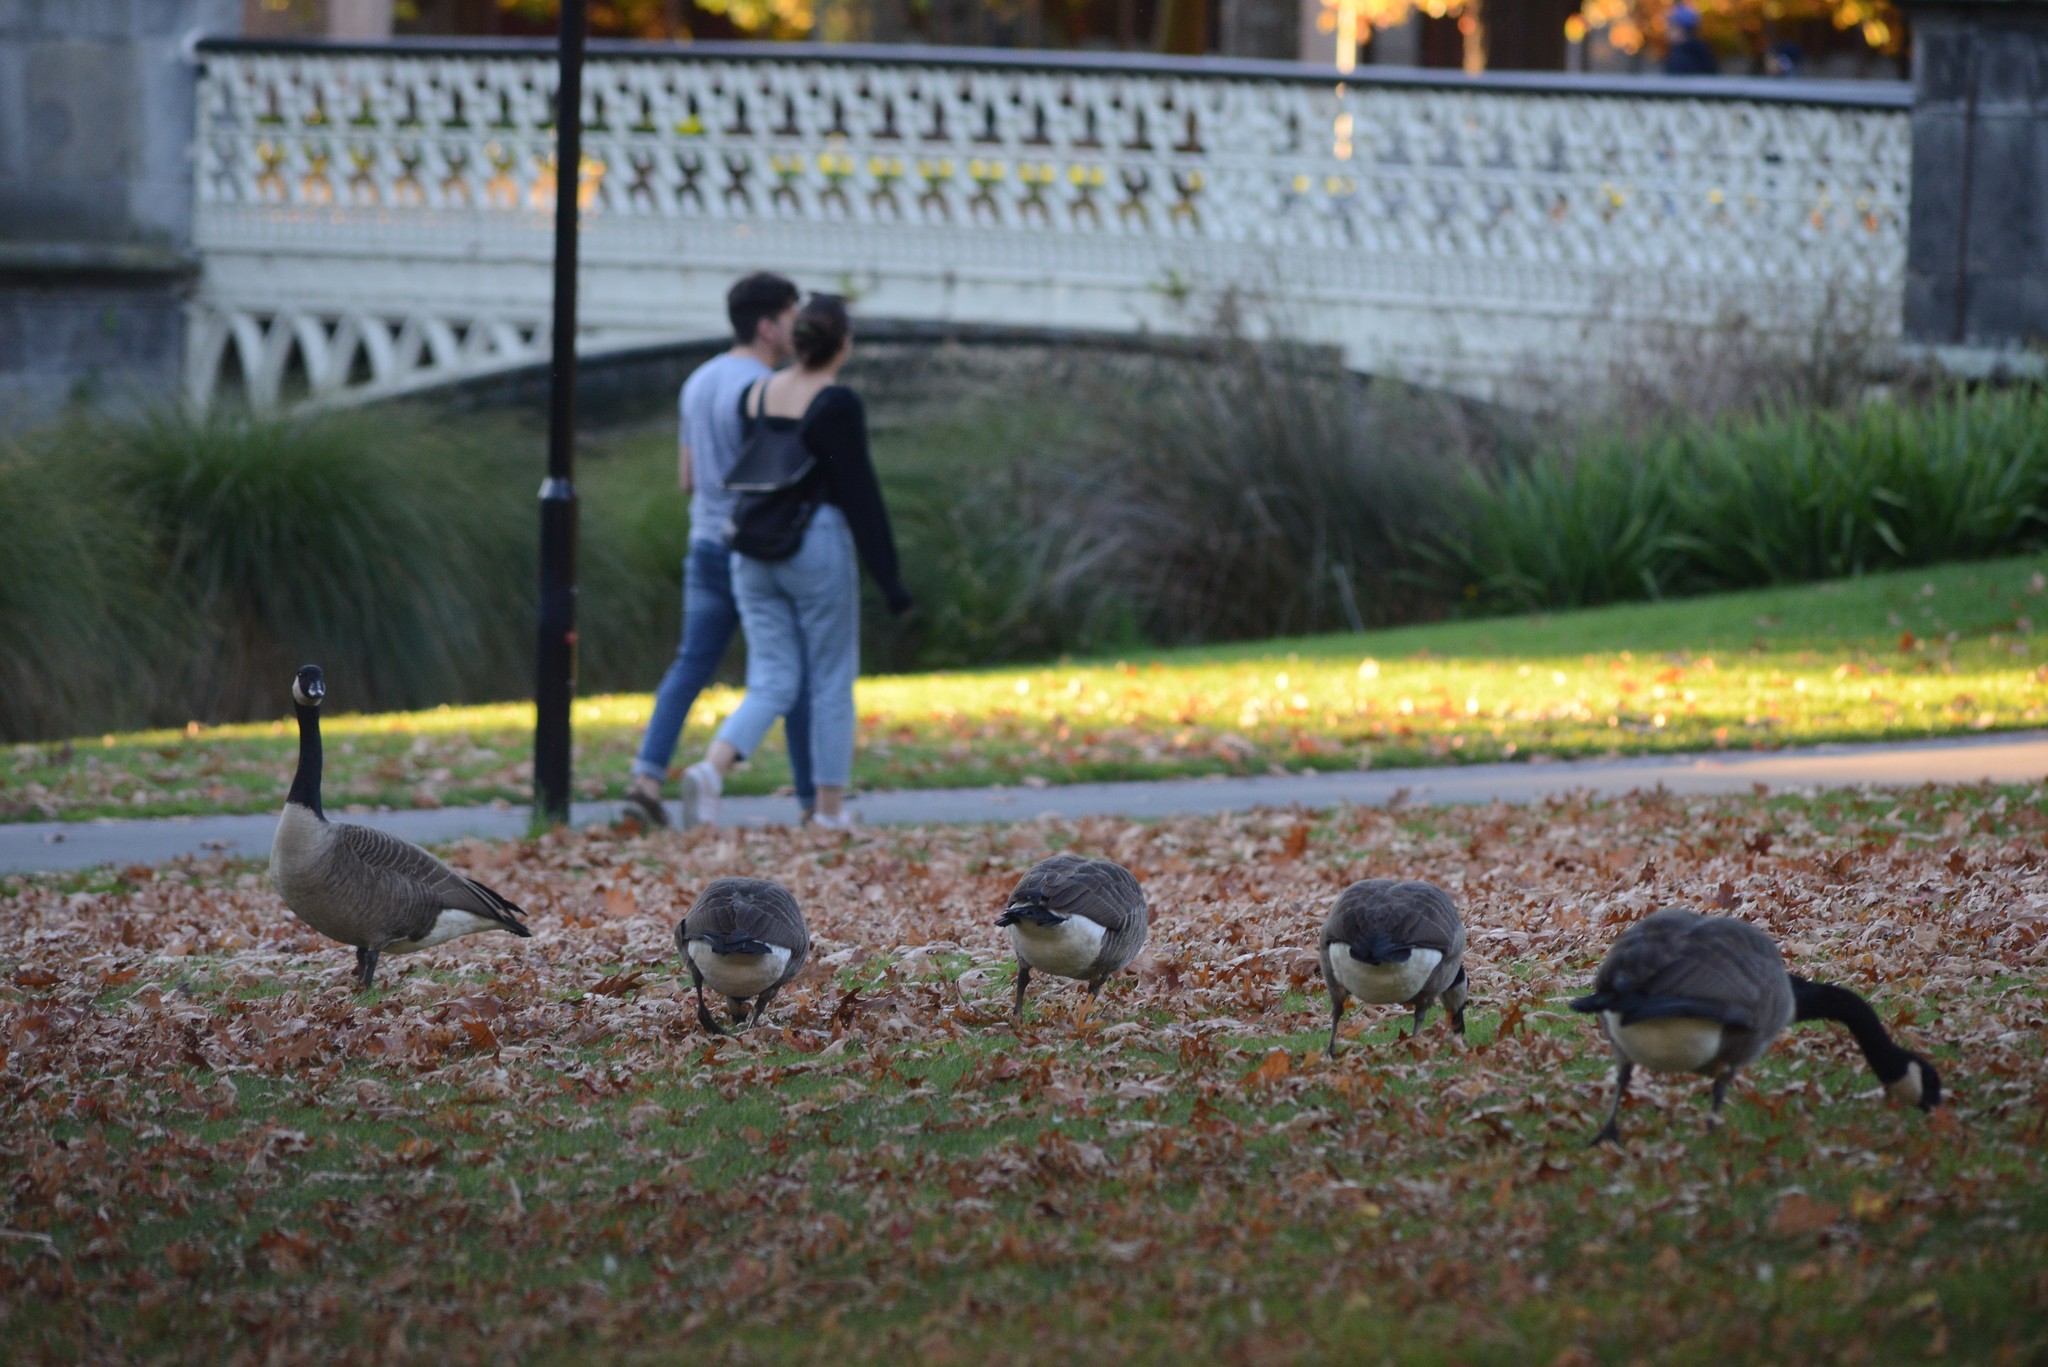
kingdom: Animalia
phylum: Chordata
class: Aves
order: Anseriformes
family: Anatidae
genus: Branta
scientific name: Branta canadensis
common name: Canada goose
